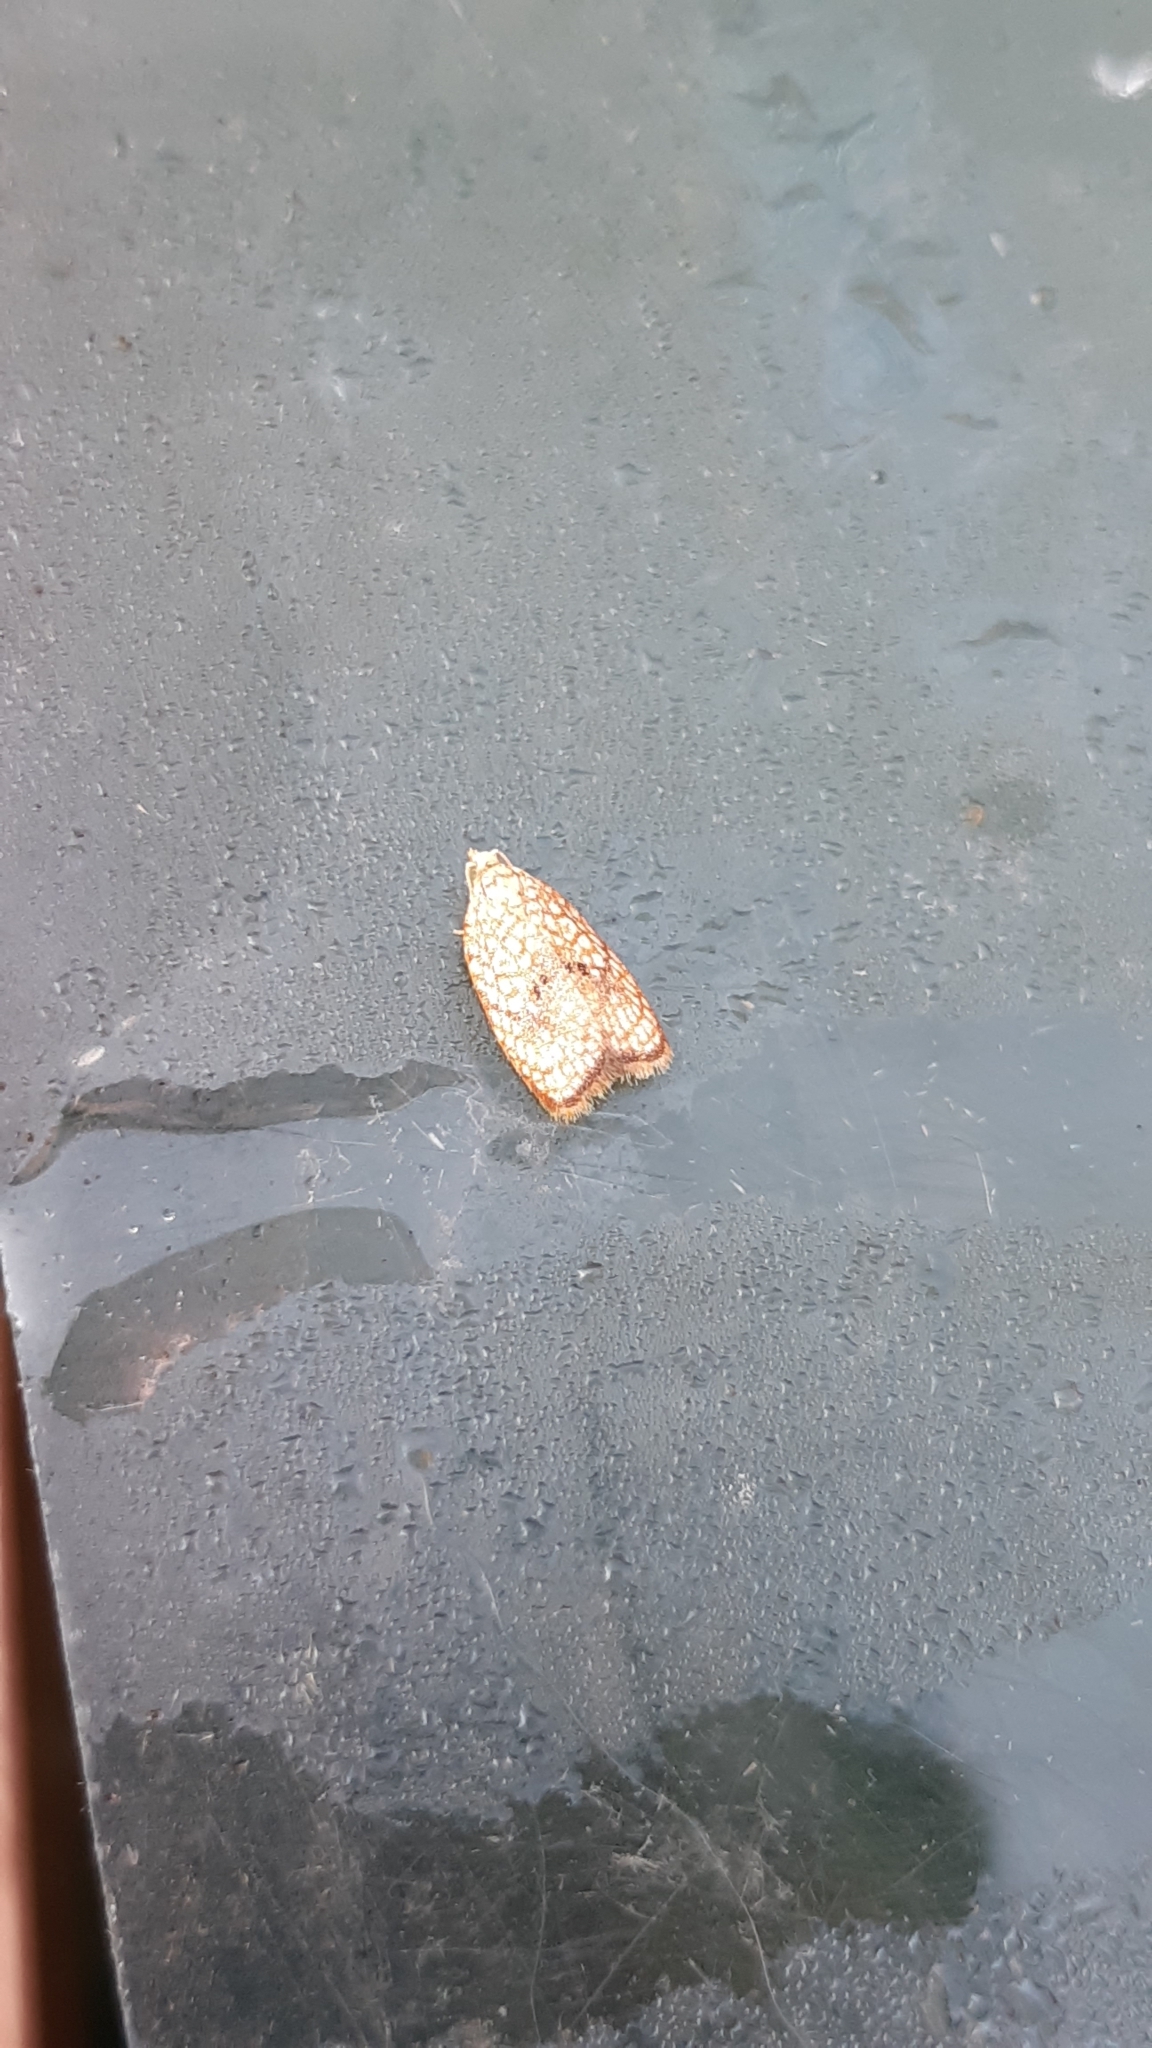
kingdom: Animalia
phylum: Arthropoda
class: Insecta
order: Lepidoptera
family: Tortricidae
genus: Acleris
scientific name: Acleris forsskaleana
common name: Maple button
